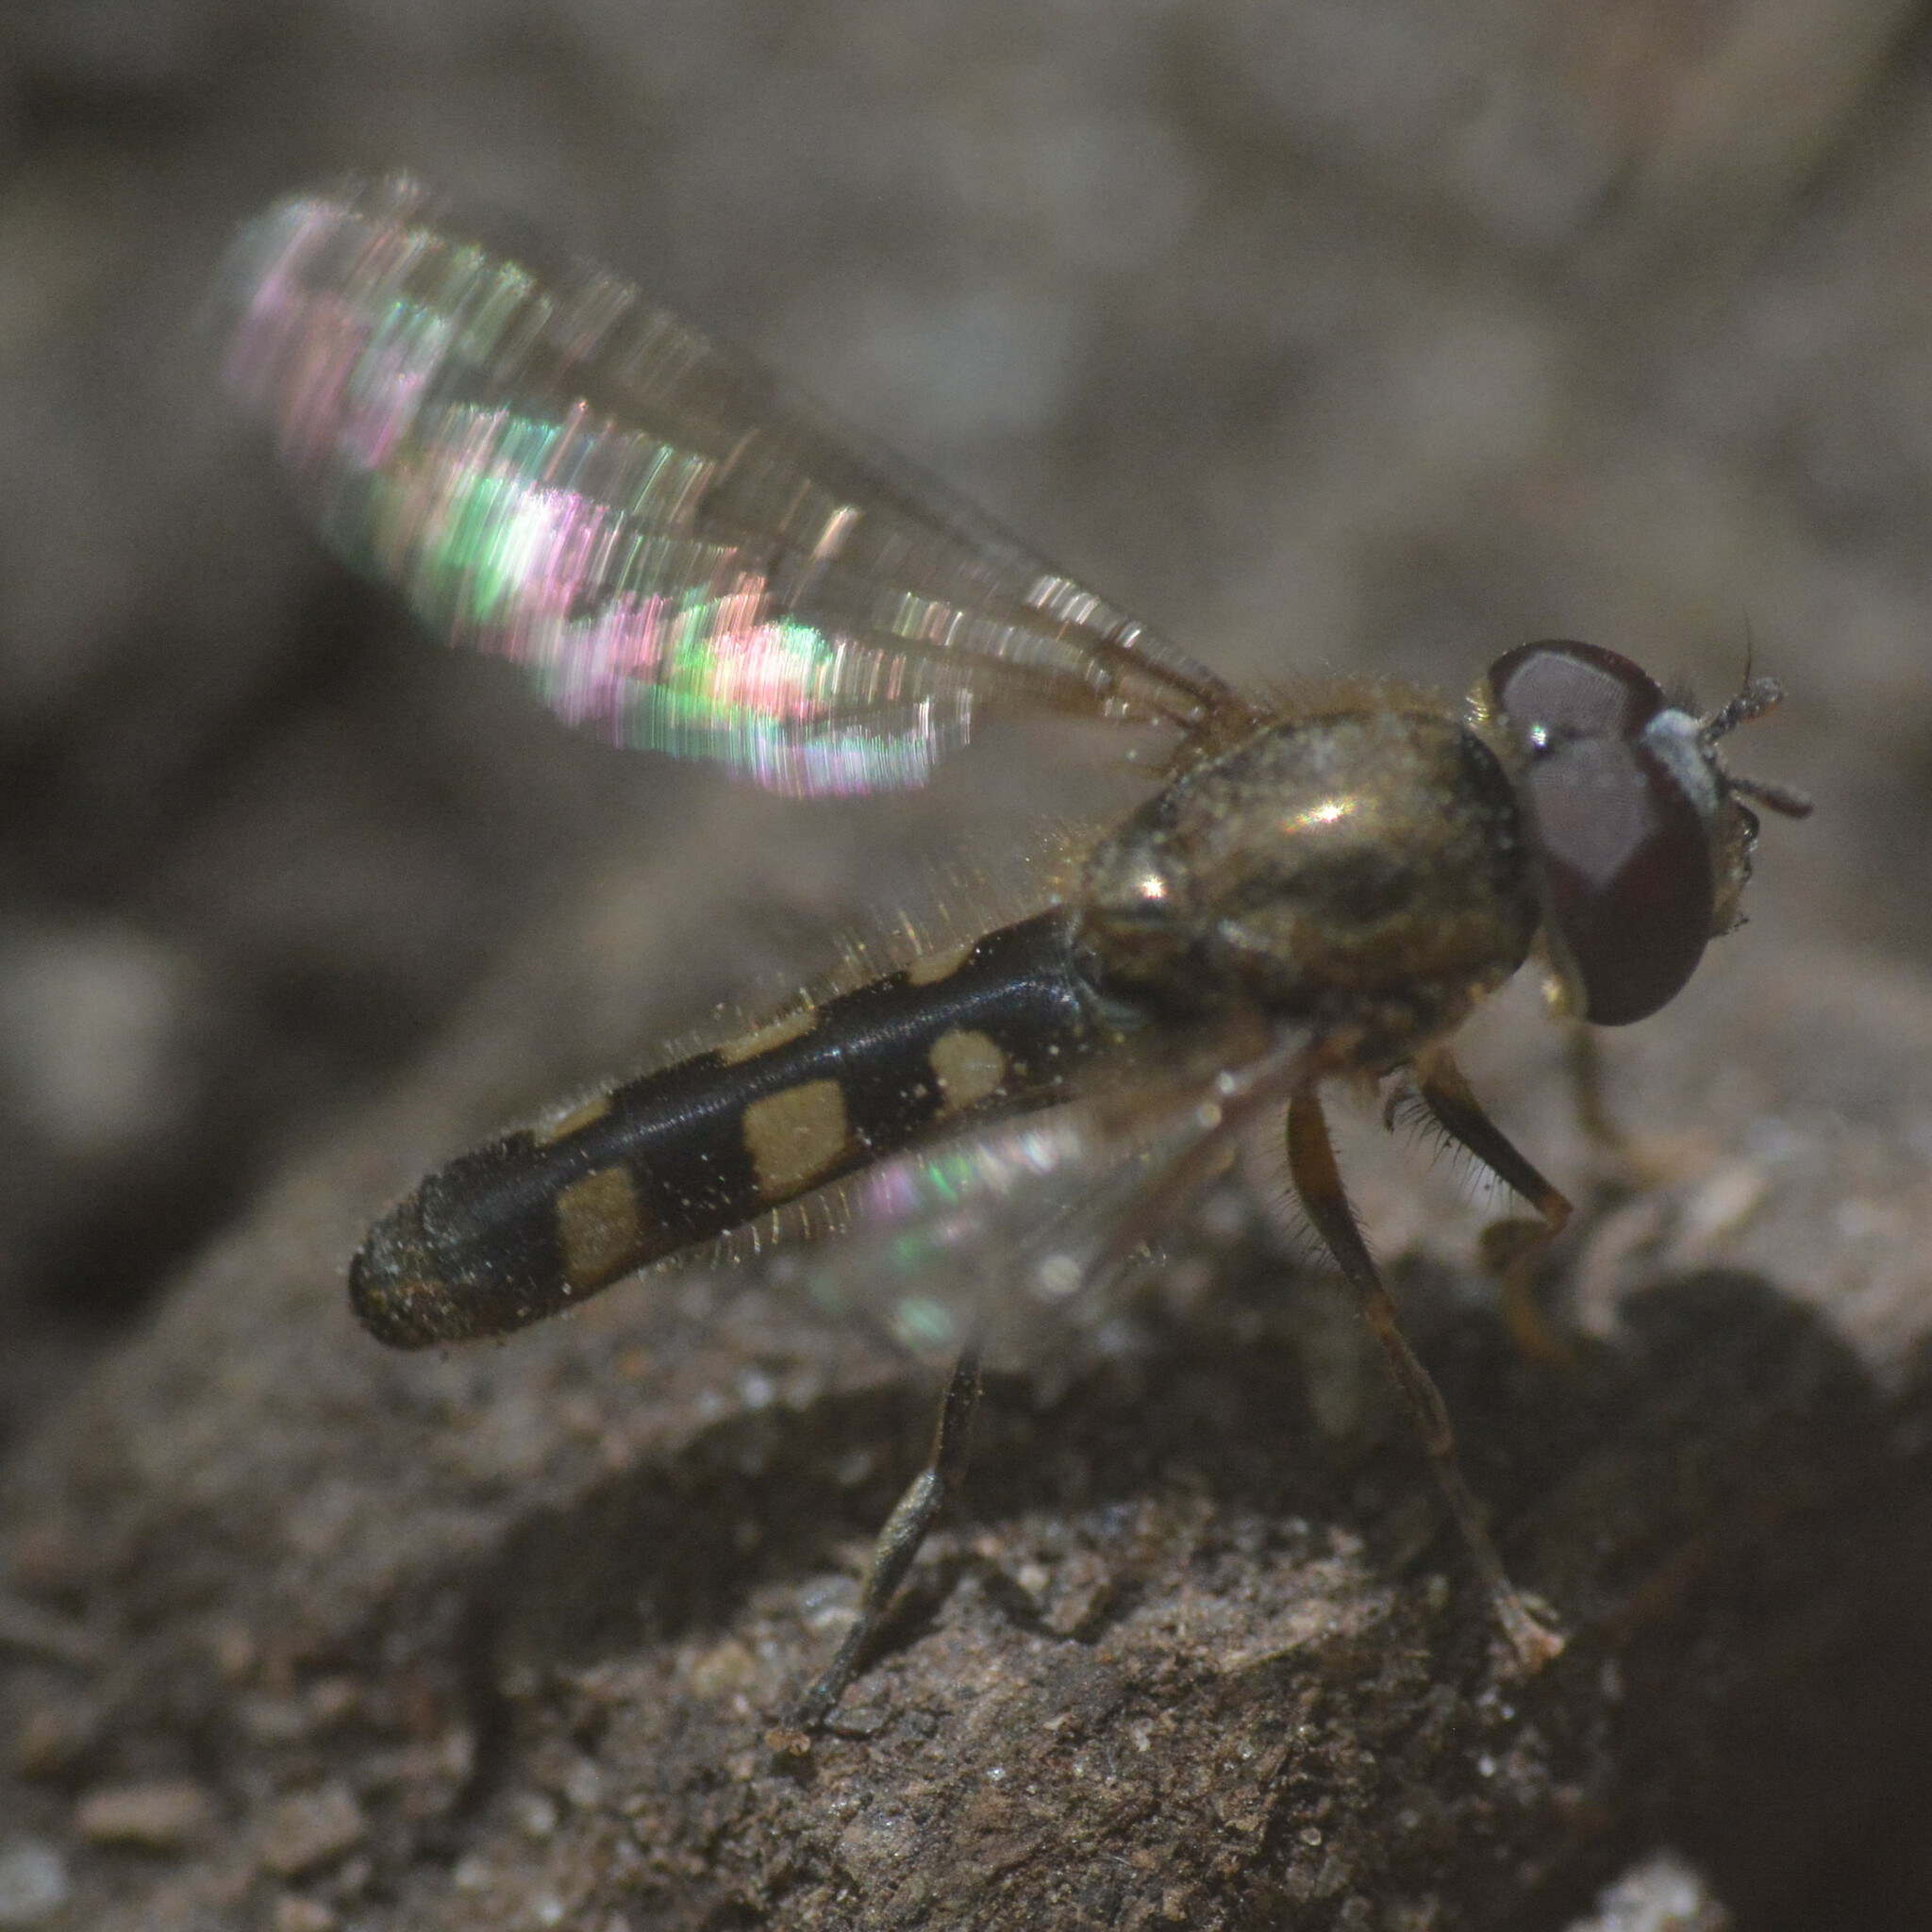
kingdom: Animalia
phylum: Arthropoda
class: Insecta
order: Diptera
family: Syrphidae
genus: Platycheirus
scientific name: Platycheirus scutatus
